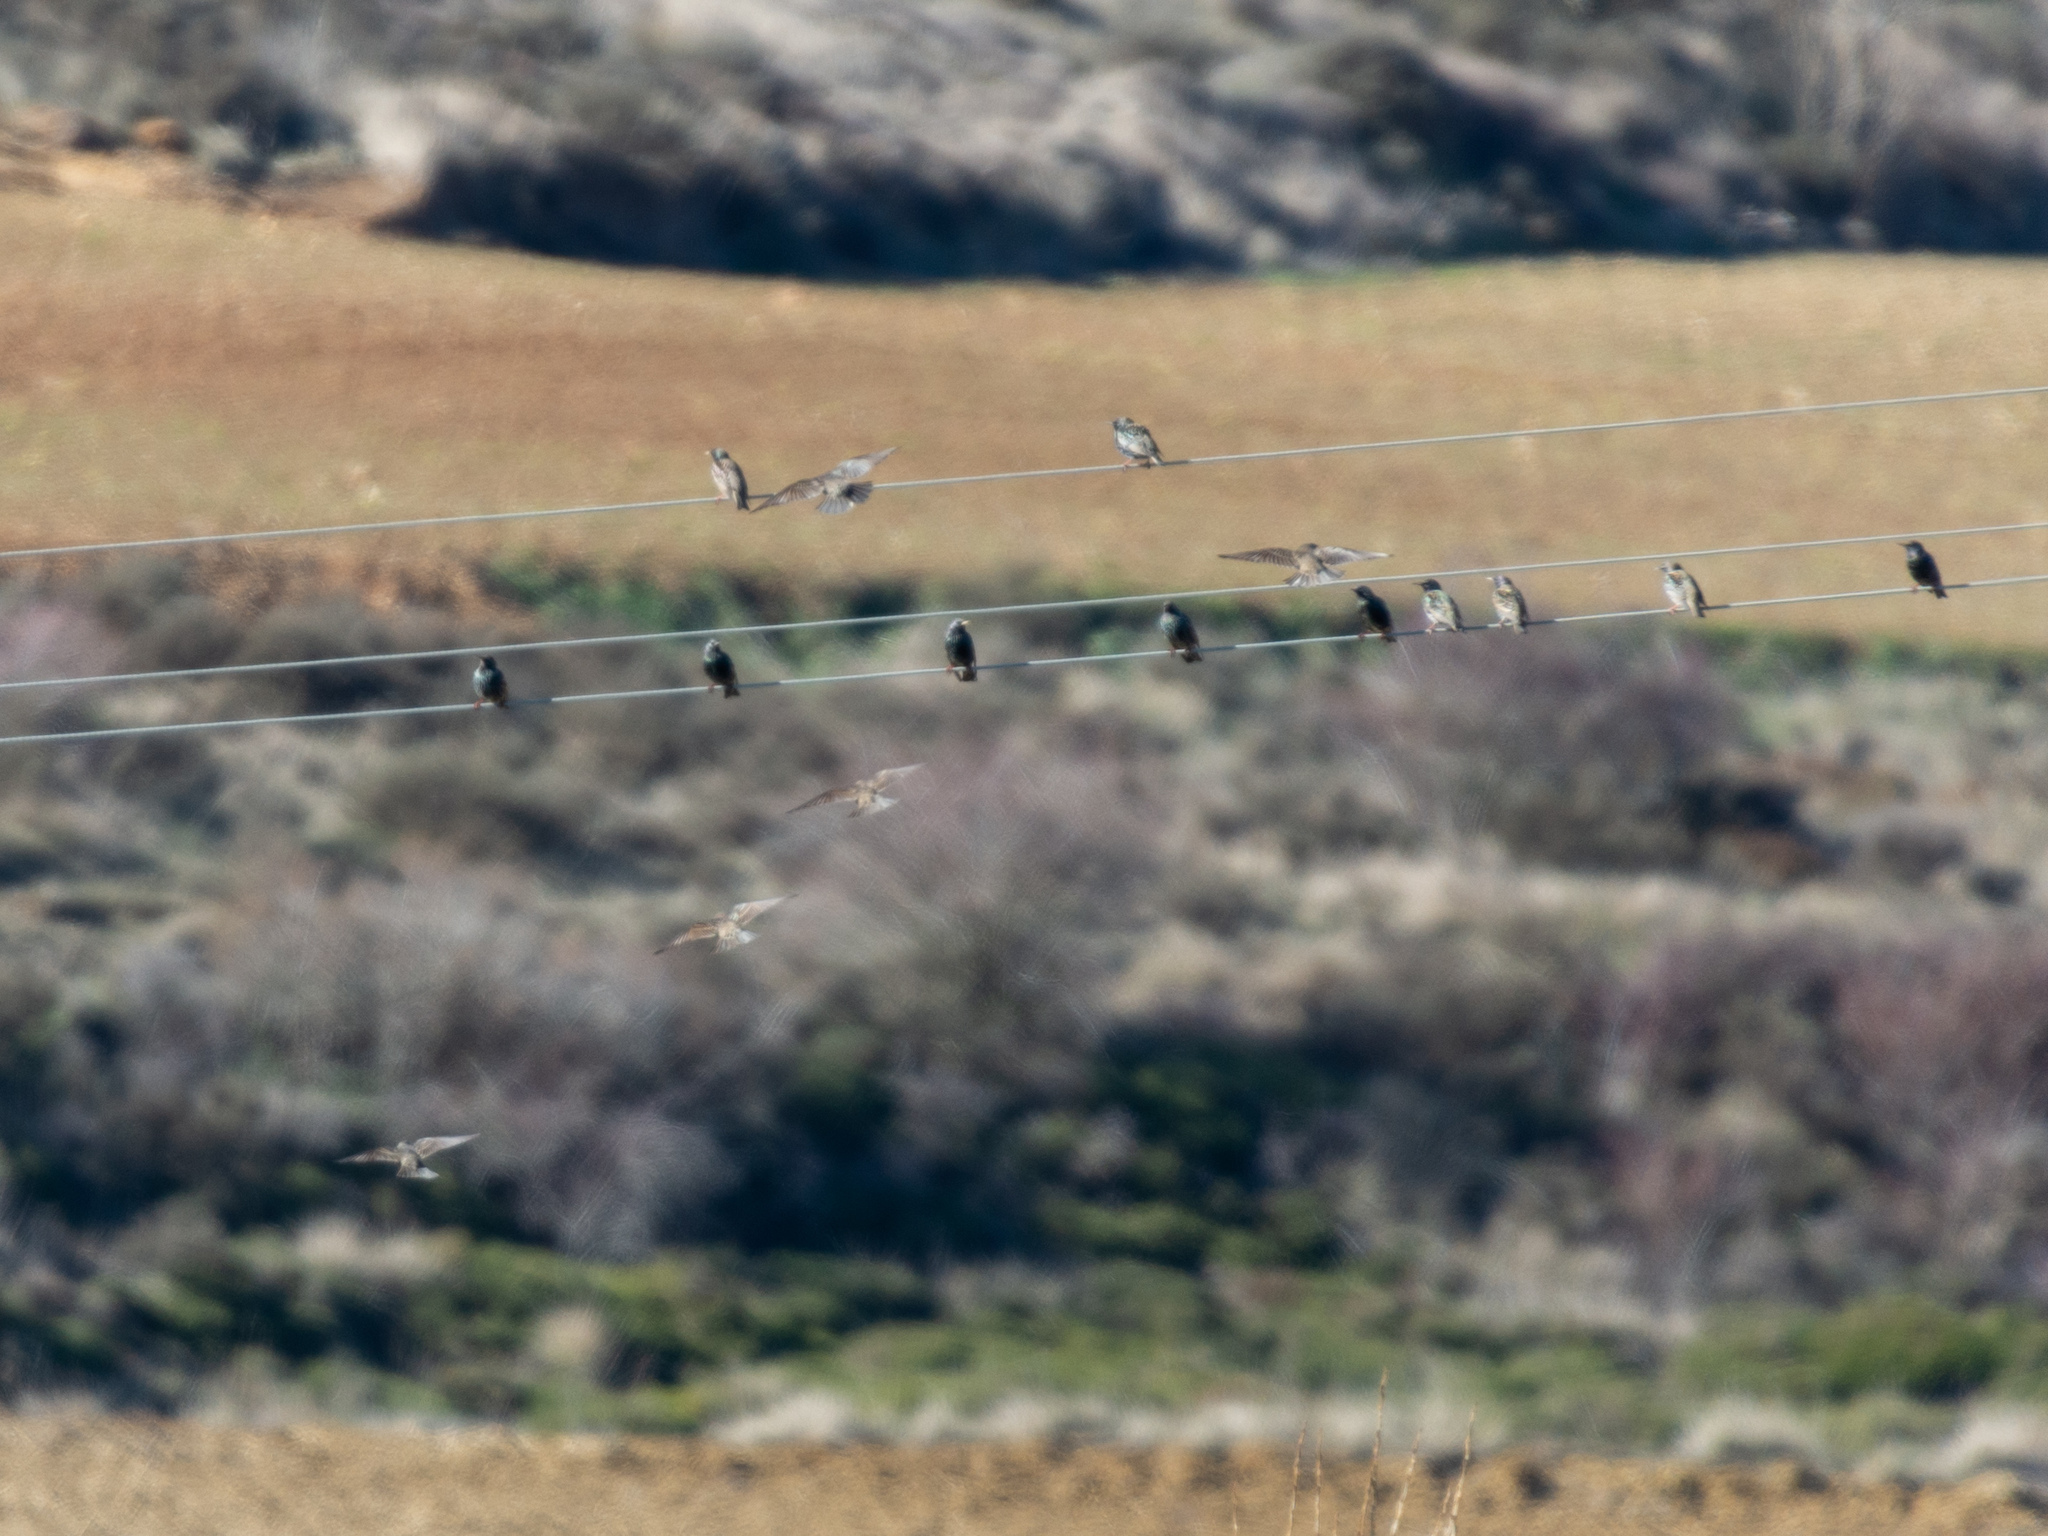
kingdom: Animalia
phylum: Chordata
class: Aves
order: Passeriformes
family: Sturnidae
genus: Sturnus
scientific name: Sturnus vulgaris
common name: Common starling
